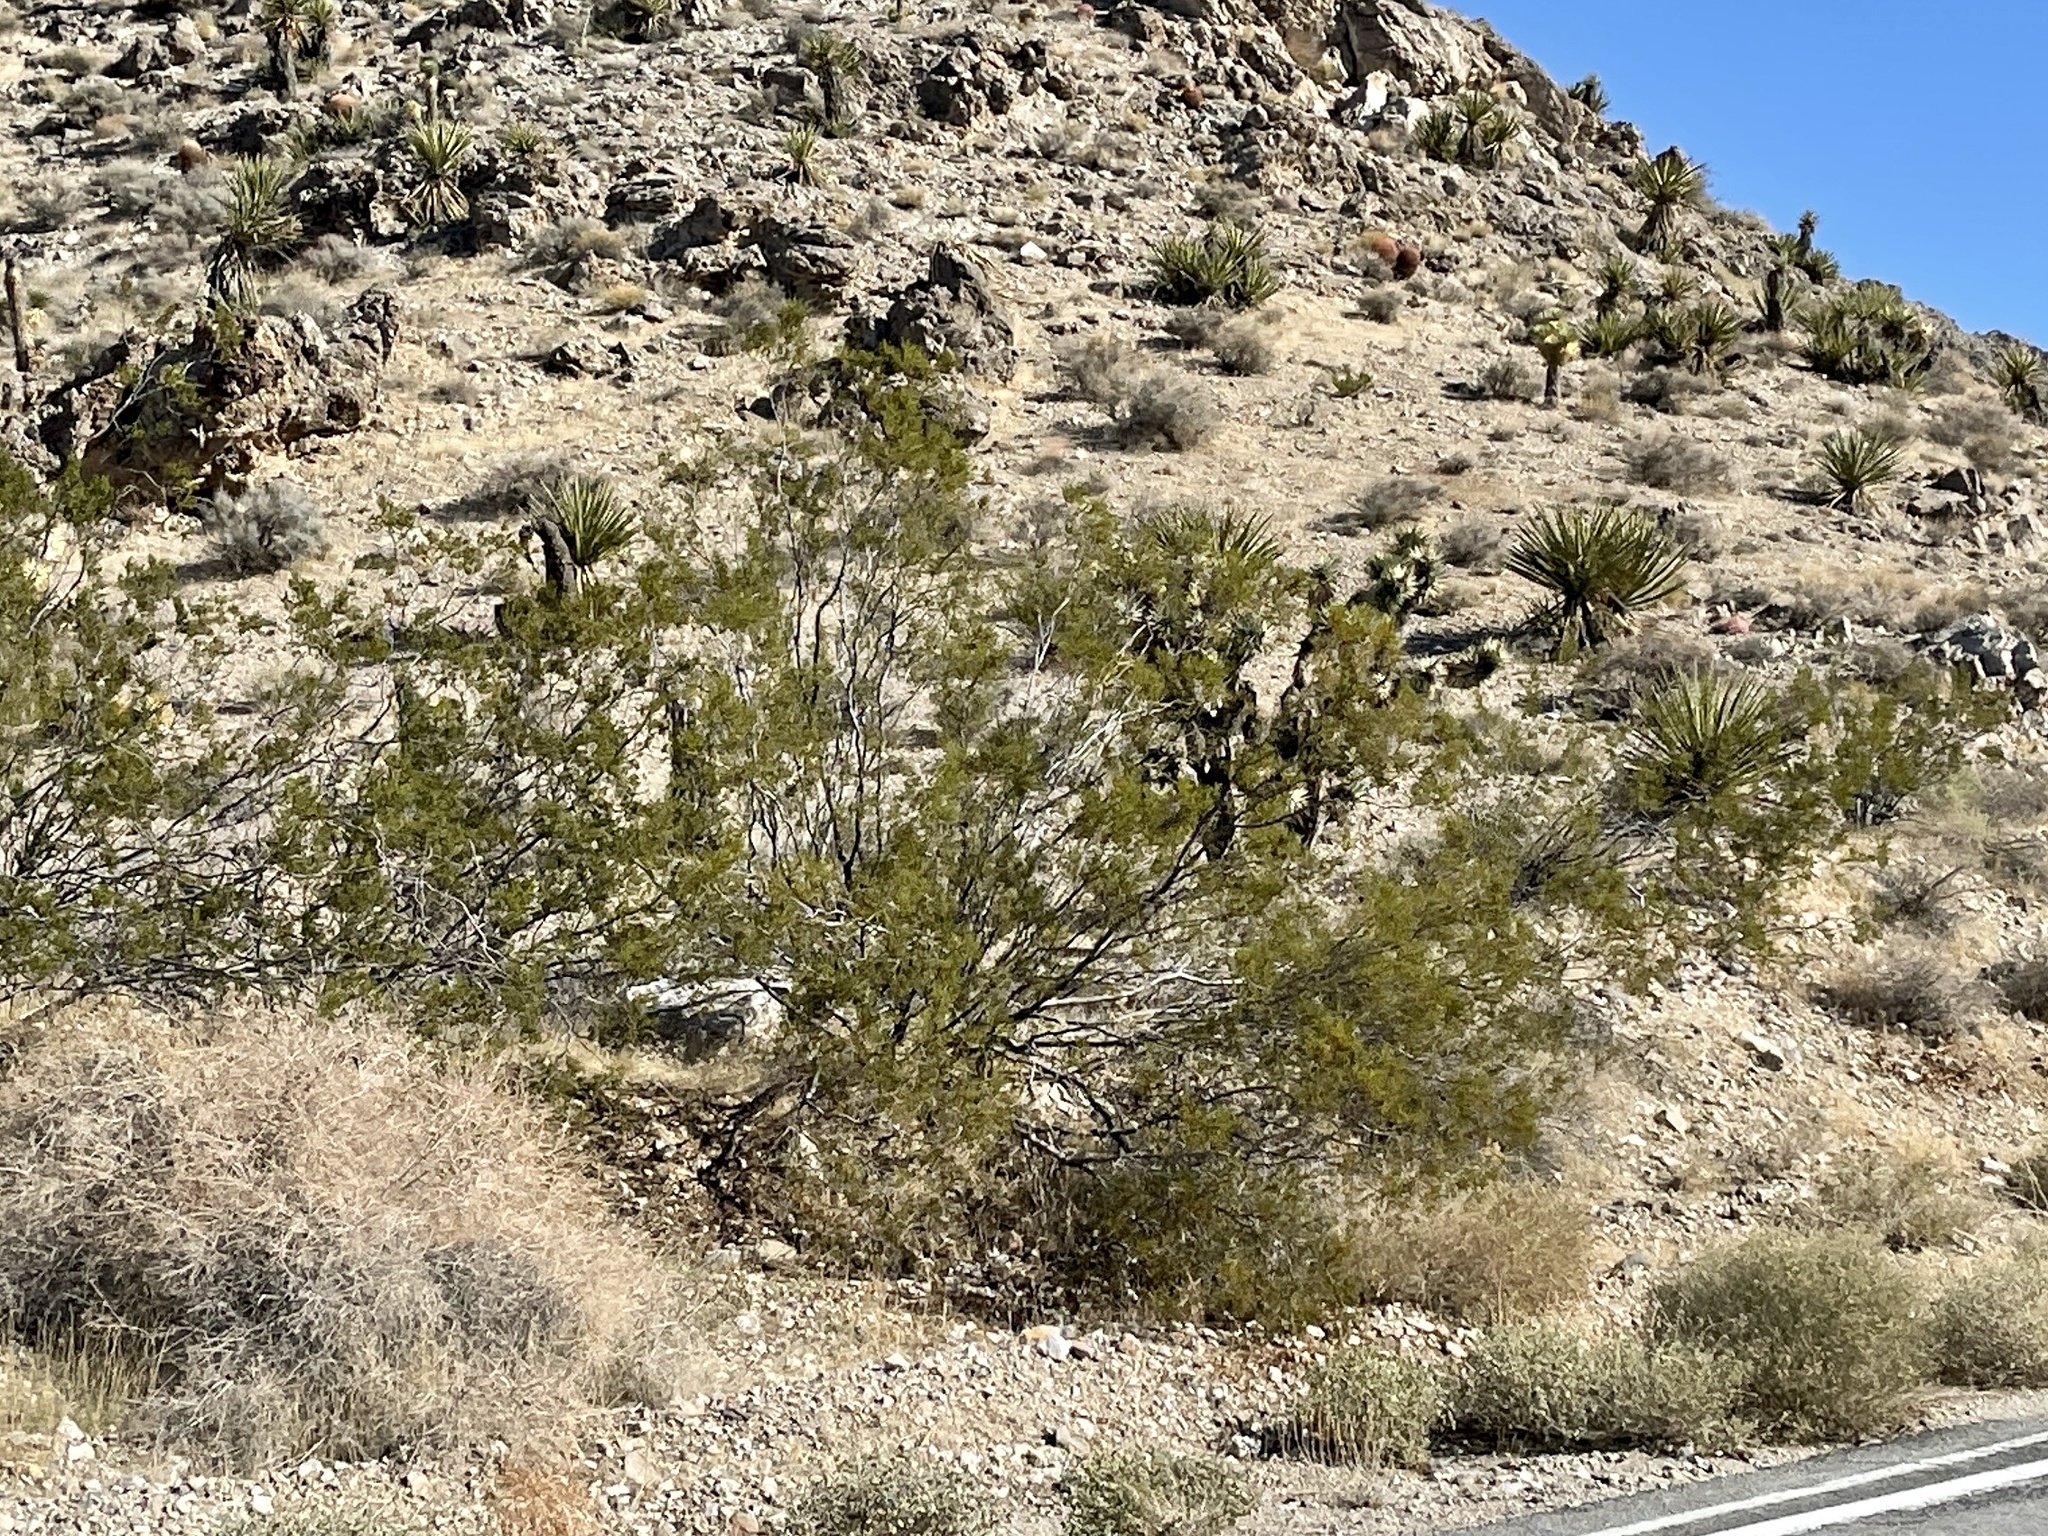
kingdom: Plantae
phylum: Tracheophyta
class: Magnoliopsida
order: Zygophyllales
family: Zygophyllaceae
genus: Larrea
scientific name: Larrea tridentata
